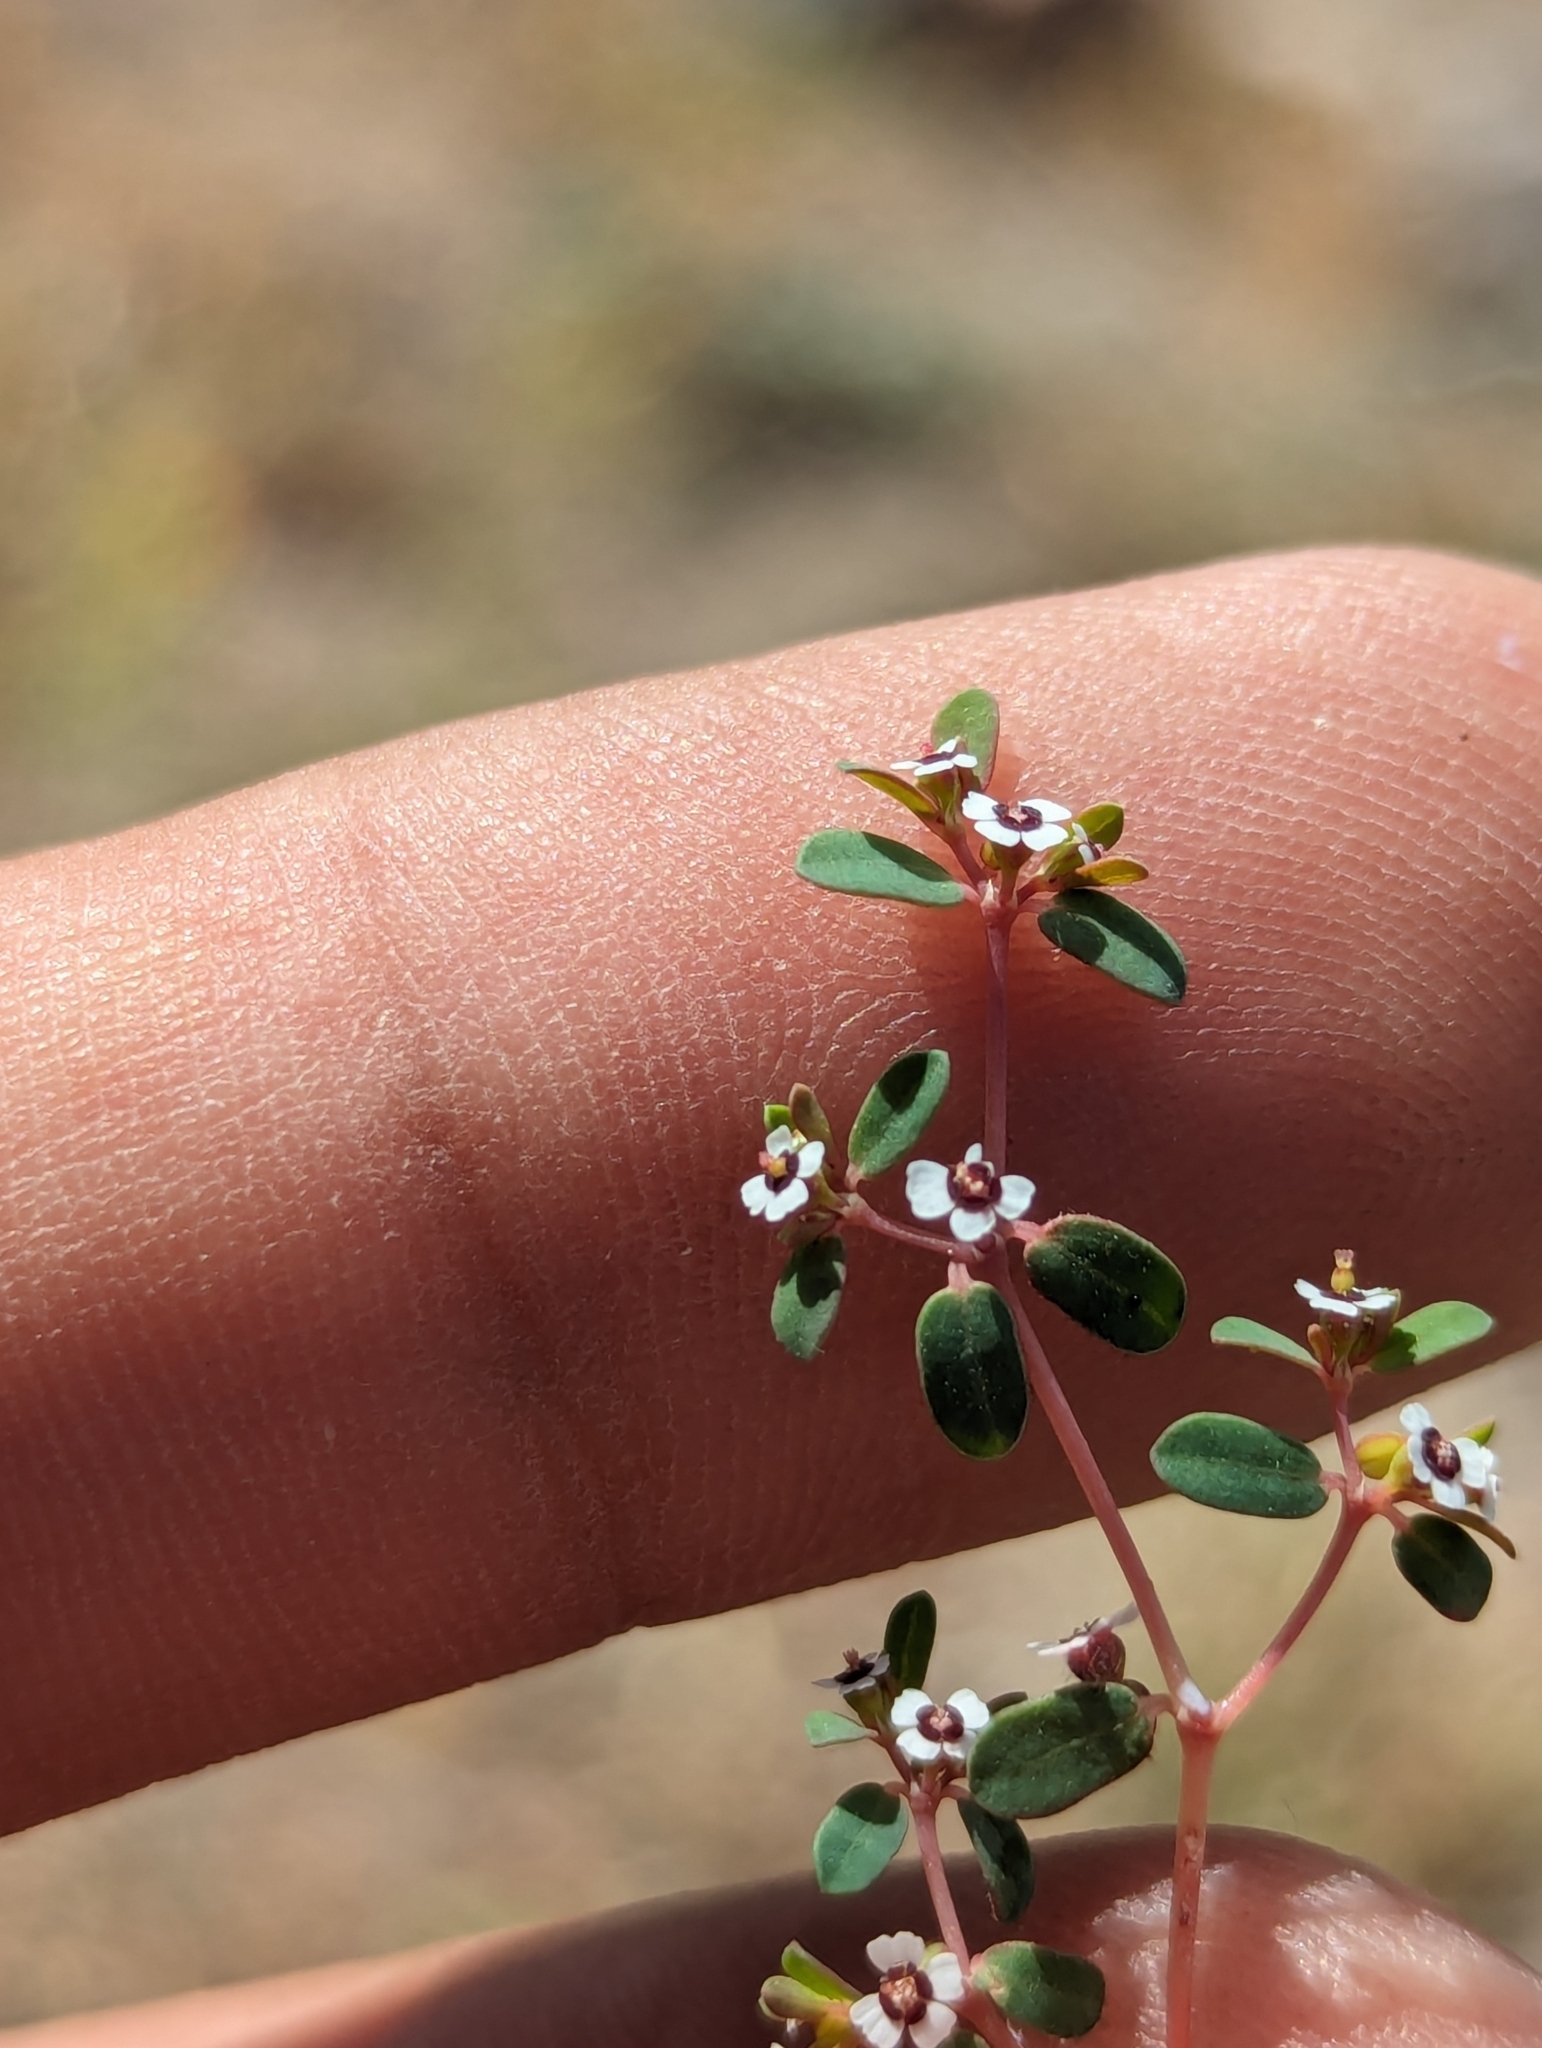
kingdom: Plantae
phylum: Tracheophyta
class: Magnoliopsida
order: Malpighiales
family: Euphorbiaceae
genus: Euphorbia
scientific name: Euphorbia polycarpa
